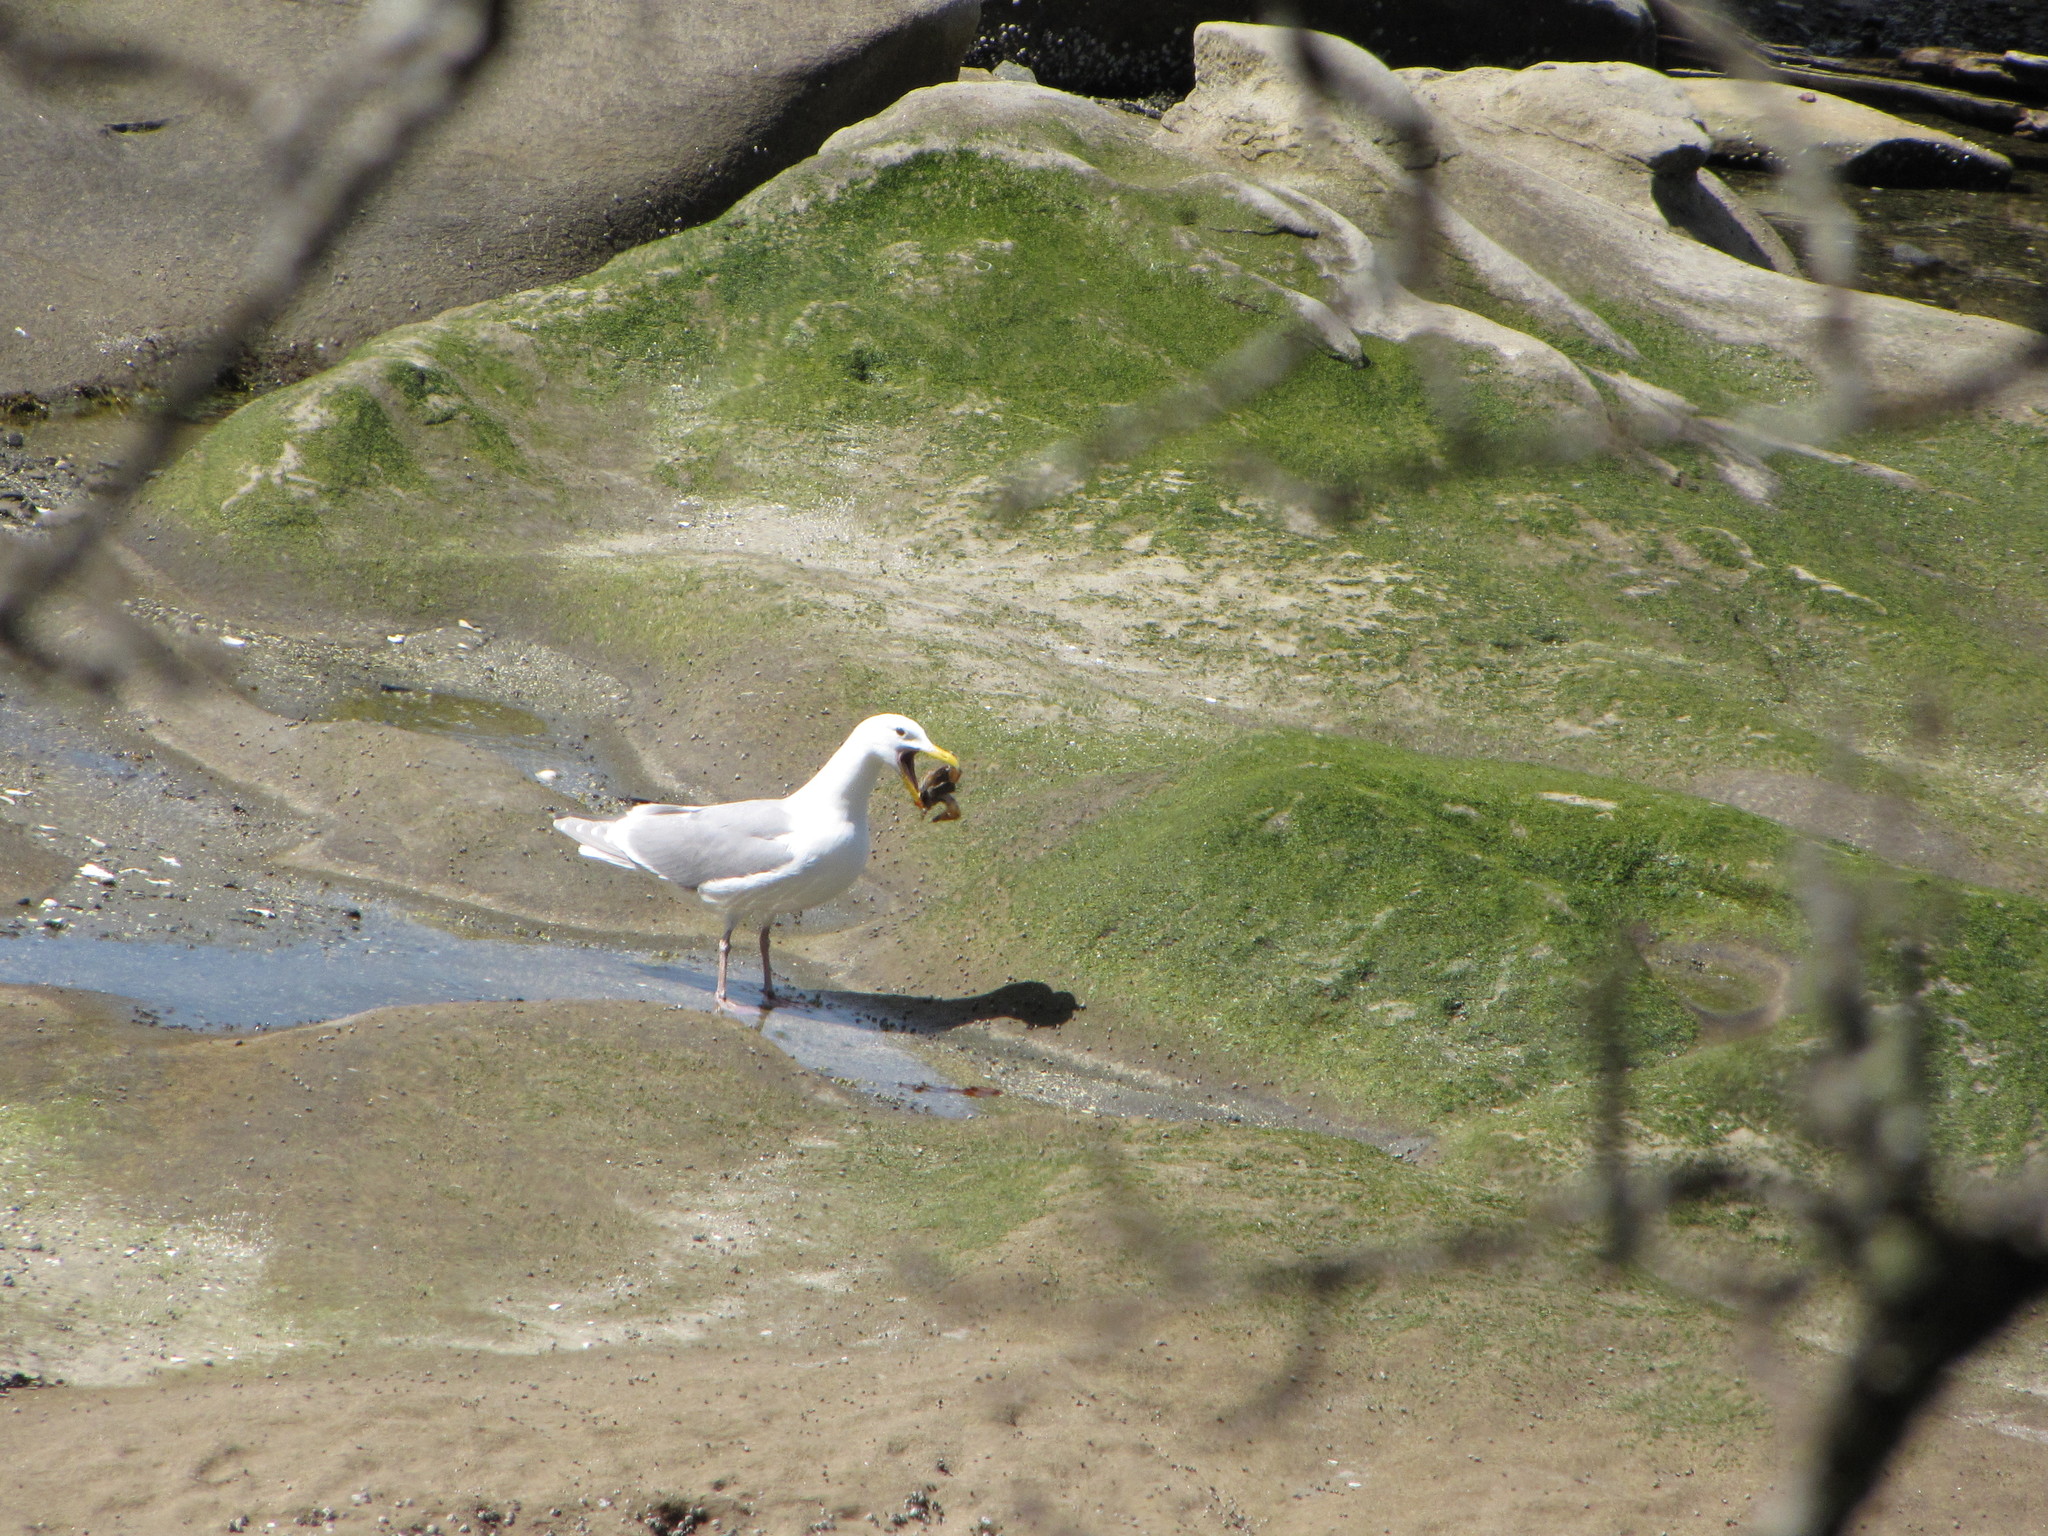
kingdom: Animalia
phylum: Chordata
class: Aves
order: Charadriiformes
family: Laridae
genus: Larus
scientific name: Larus glaucescens
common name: Glaucous-winged gull
